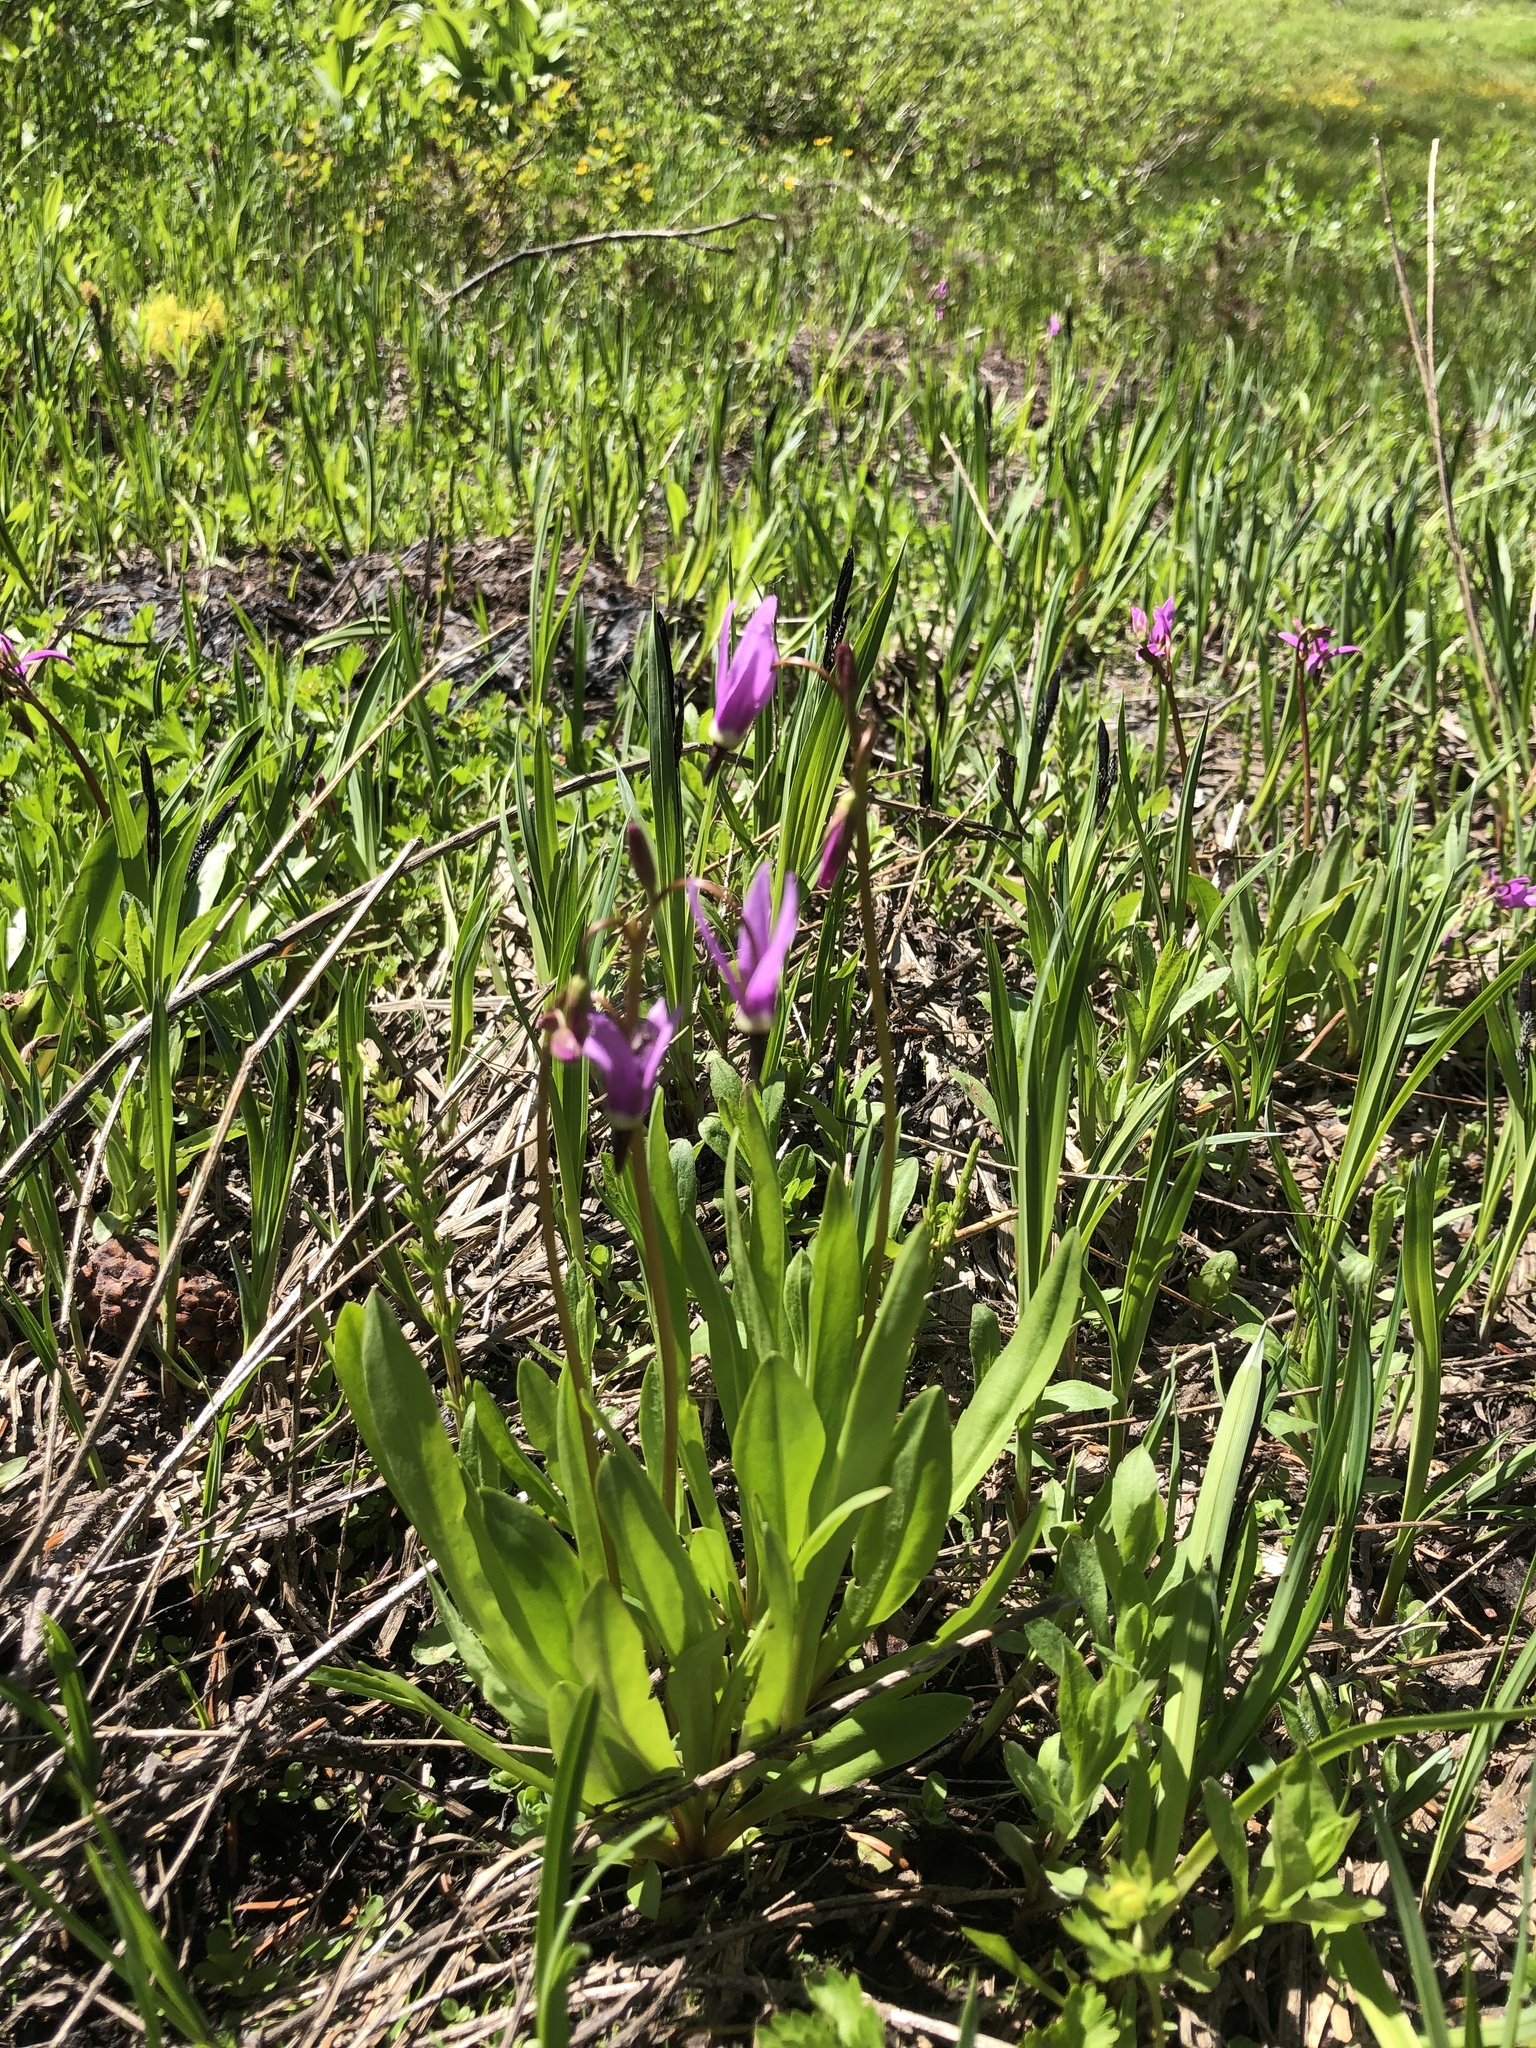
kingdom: Plantae
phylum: Tracheophyta
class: Magnoliopsida
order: Ericales
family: Primulaceae
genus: Dodecatheon
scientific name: Dodecatheon jeffreyanum
